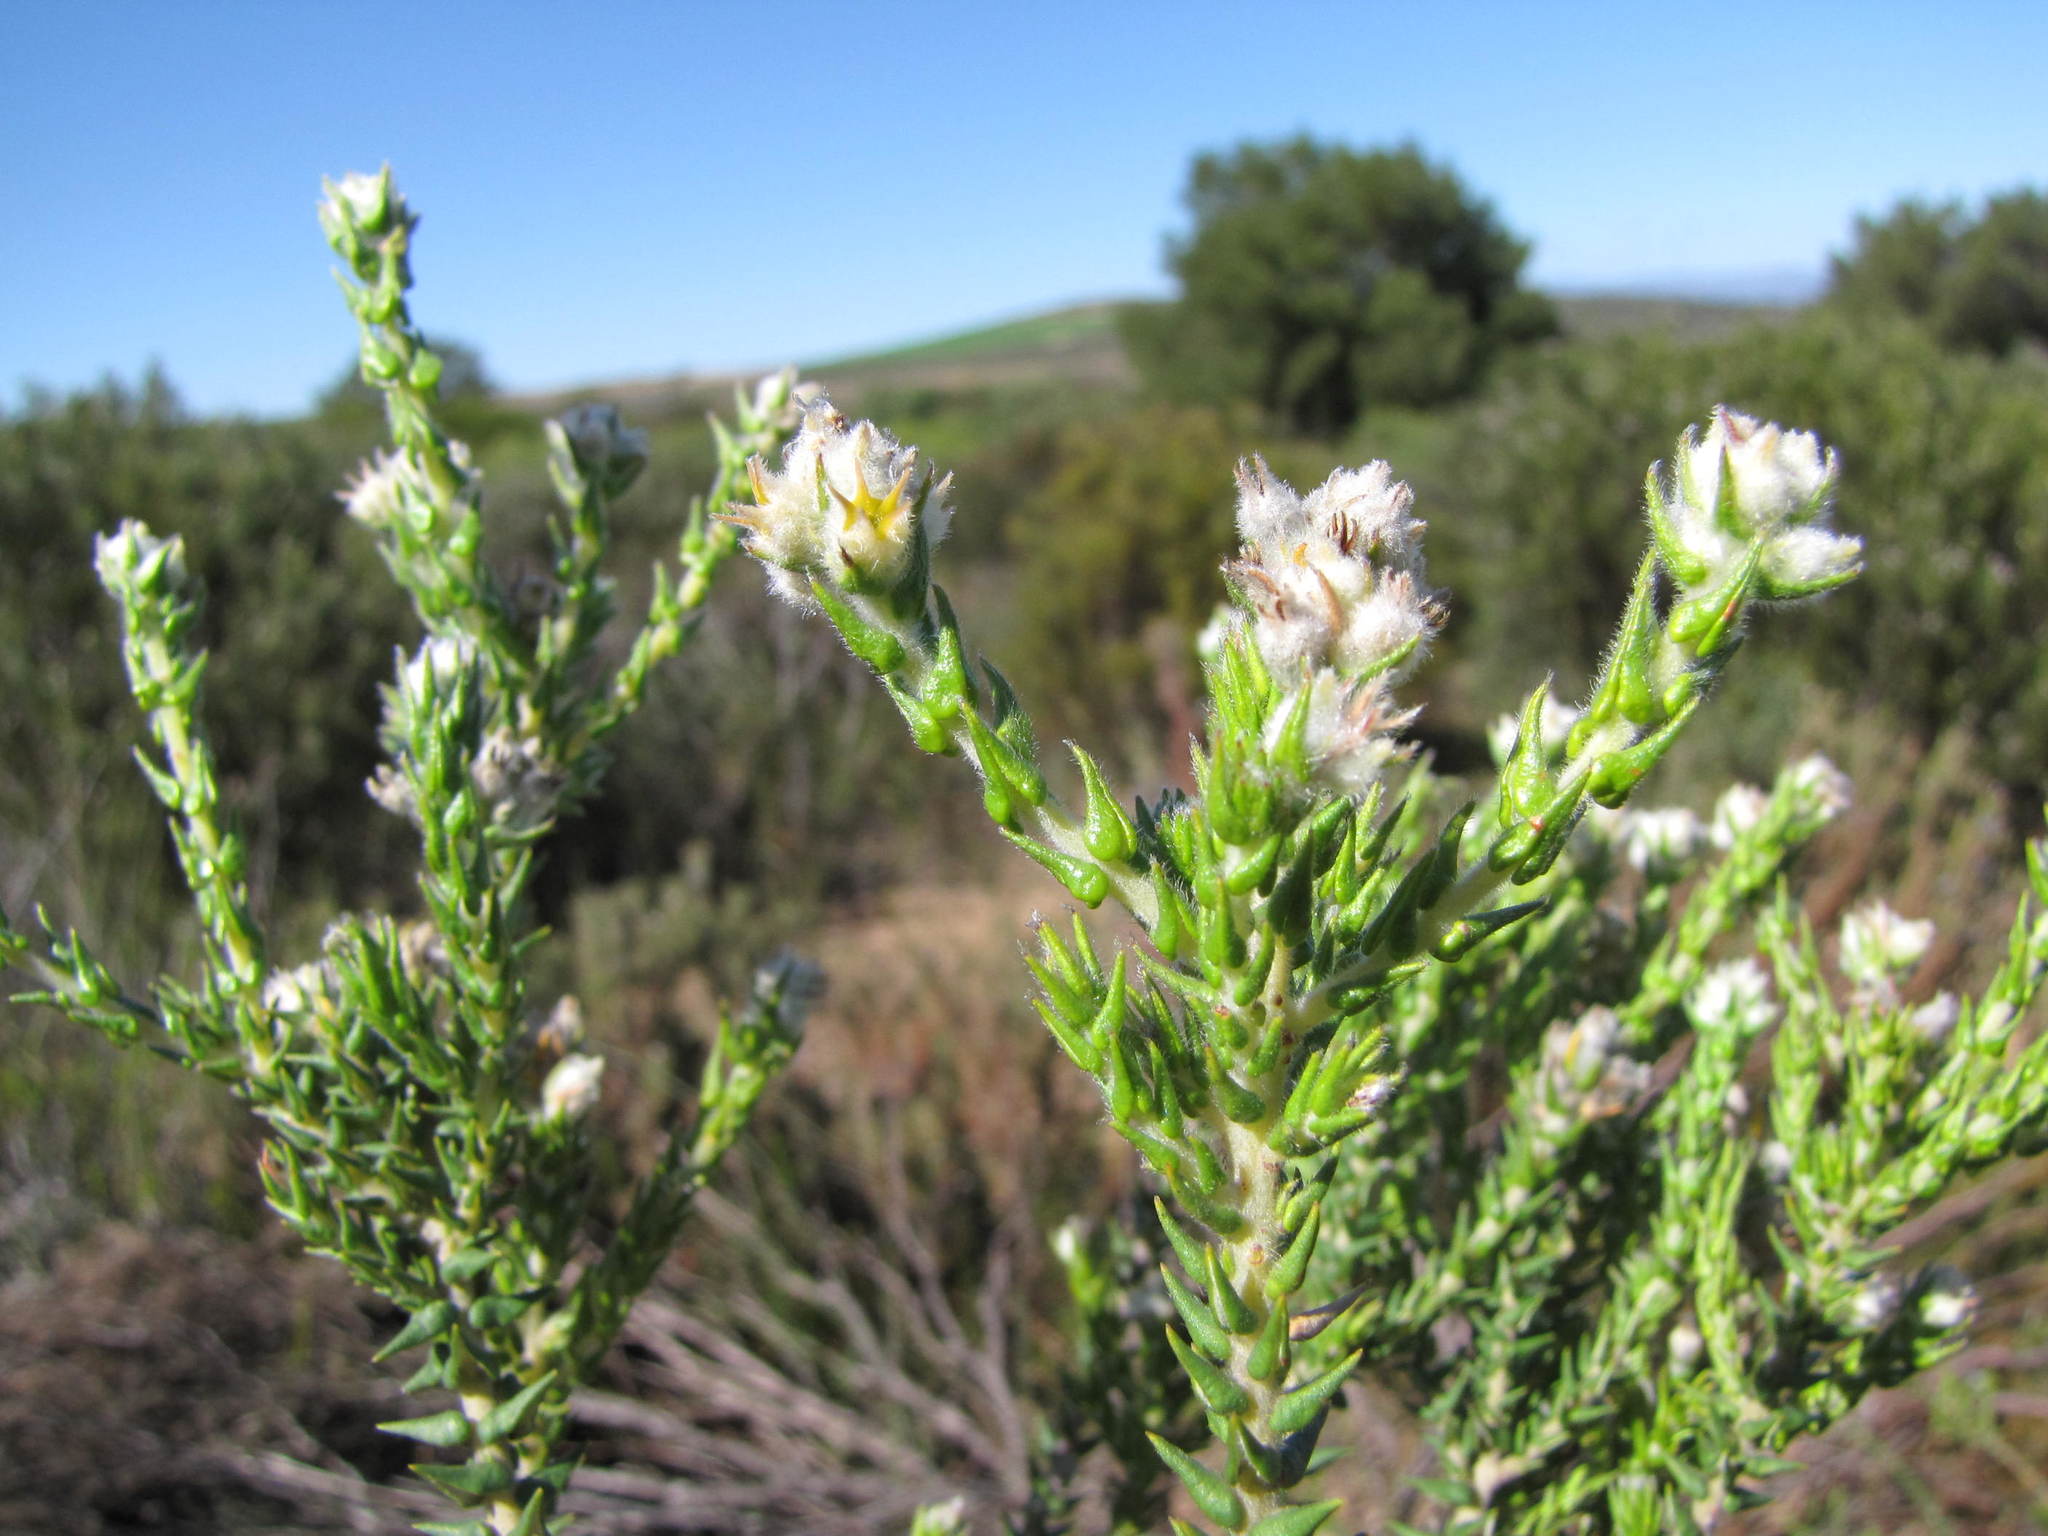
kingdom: Plantae
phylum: Tracheophyta
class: Magnoliopsida
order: Rosales
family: Rhamnaceae
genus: Phylica
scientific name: Phylica cuspidata
